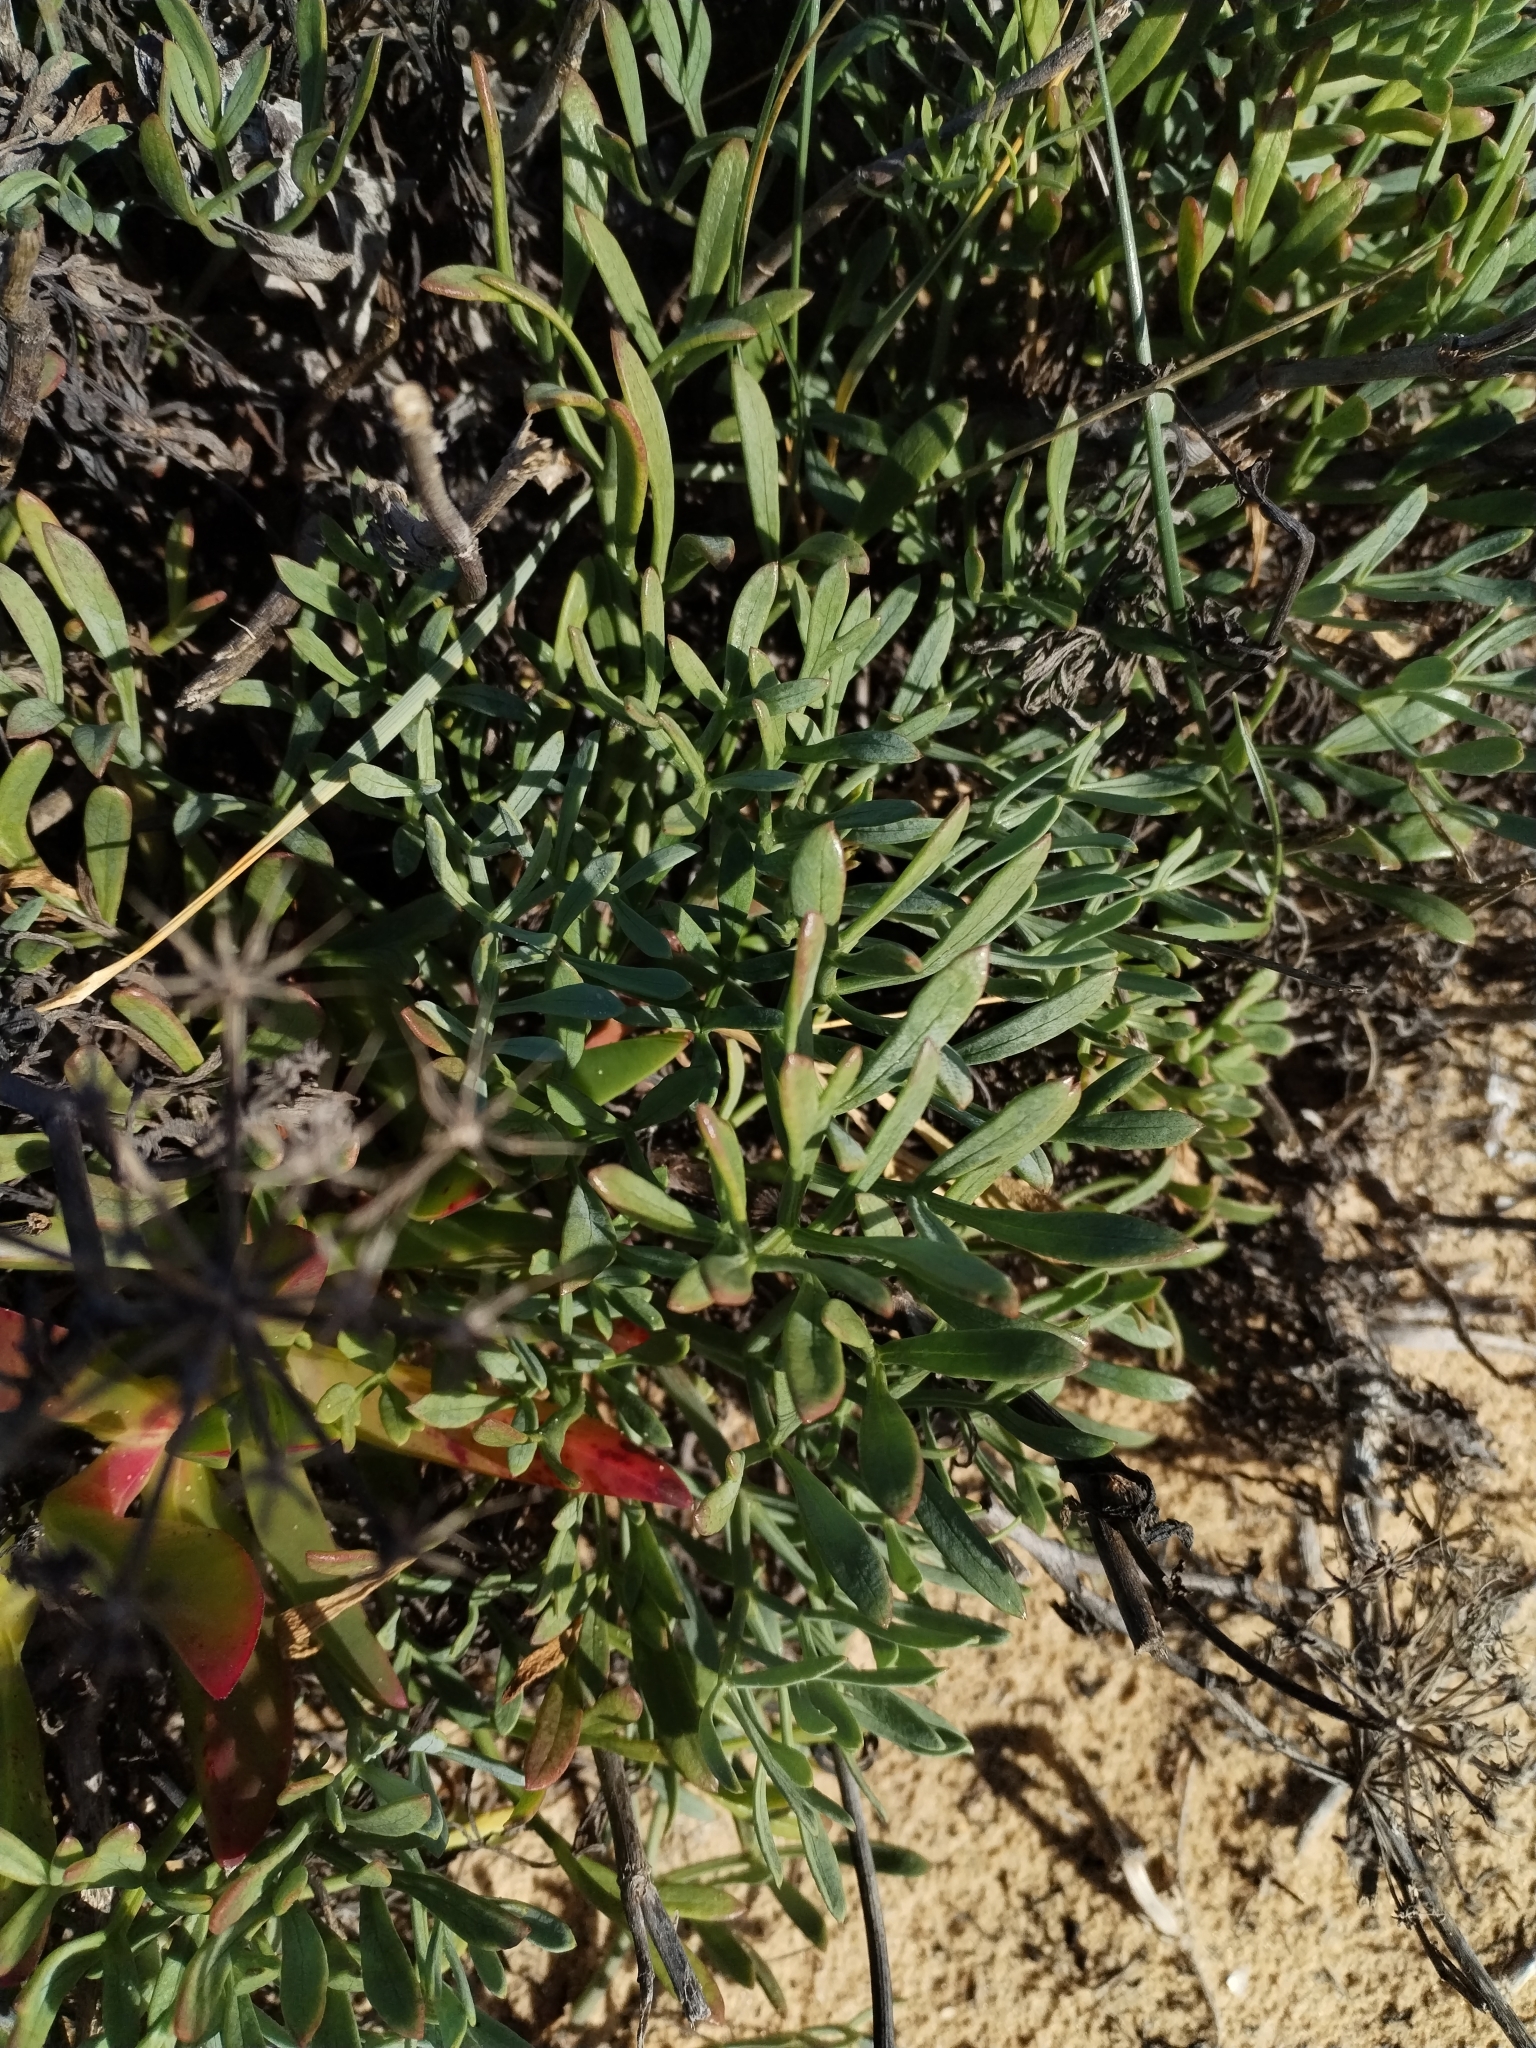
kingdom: Plantae
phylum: Tracheophyta
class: Magnoliopsida
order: Apiales
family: Apiaceae
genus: Crithmum
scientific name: Crithmum maritimum
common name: Rock samphire
